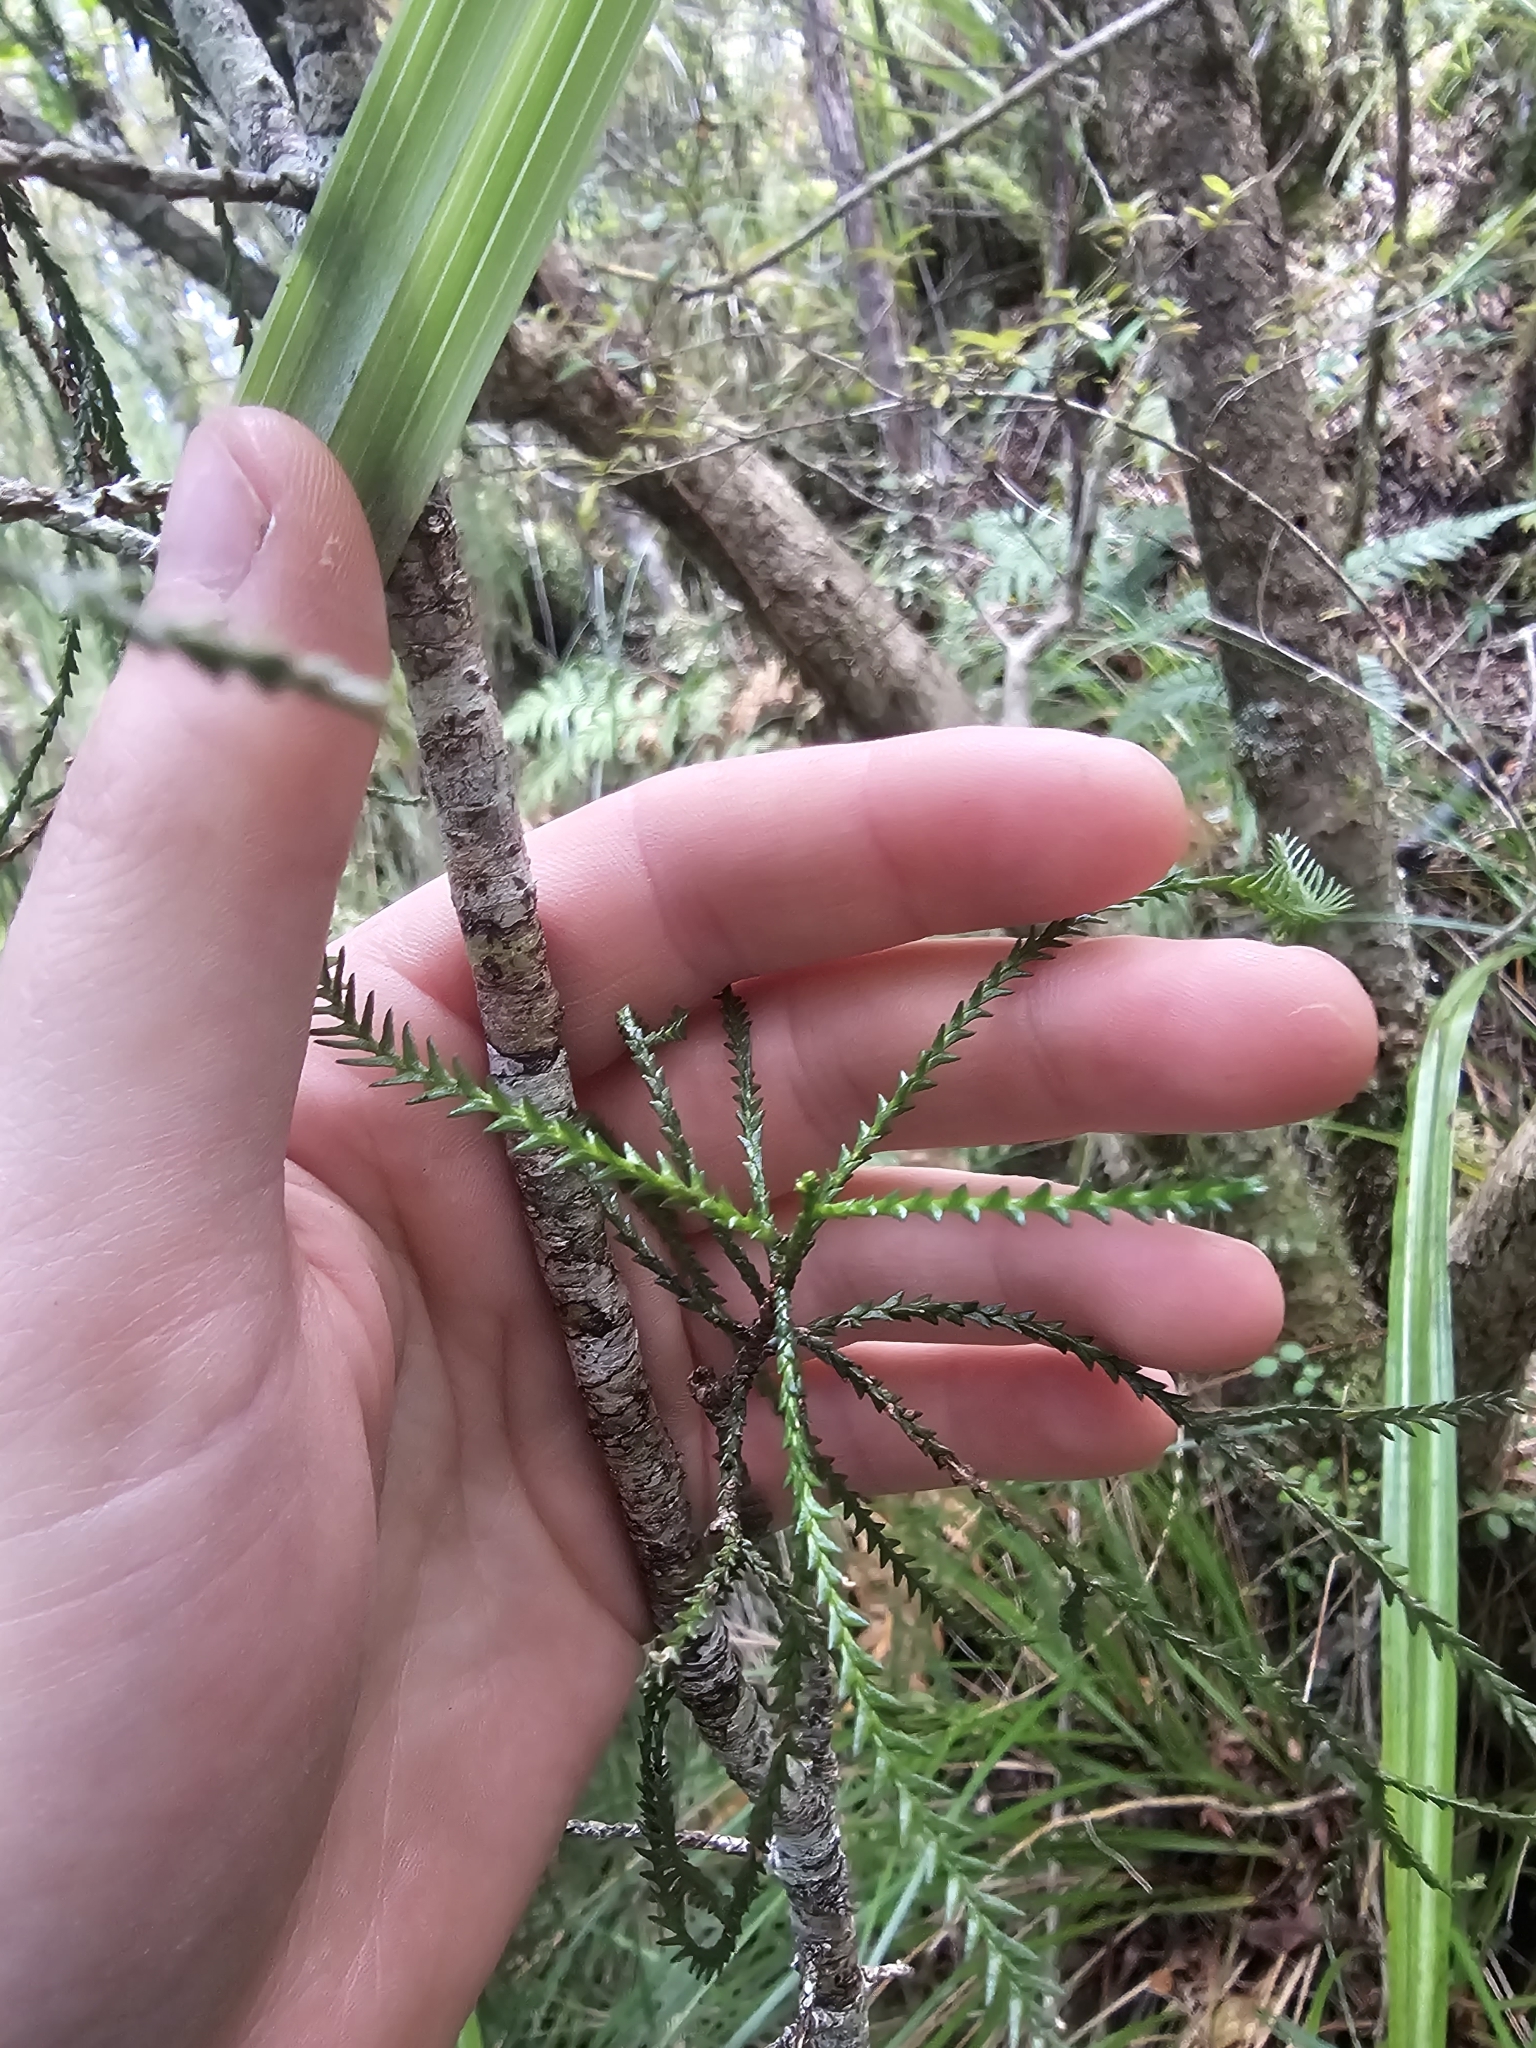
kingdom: Plantae
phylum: Tracheophyta
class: Pinopsida
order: Pinales
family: Podocarpaceae
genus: Manoao
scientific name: Manoao colensoi
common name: Silver pine
